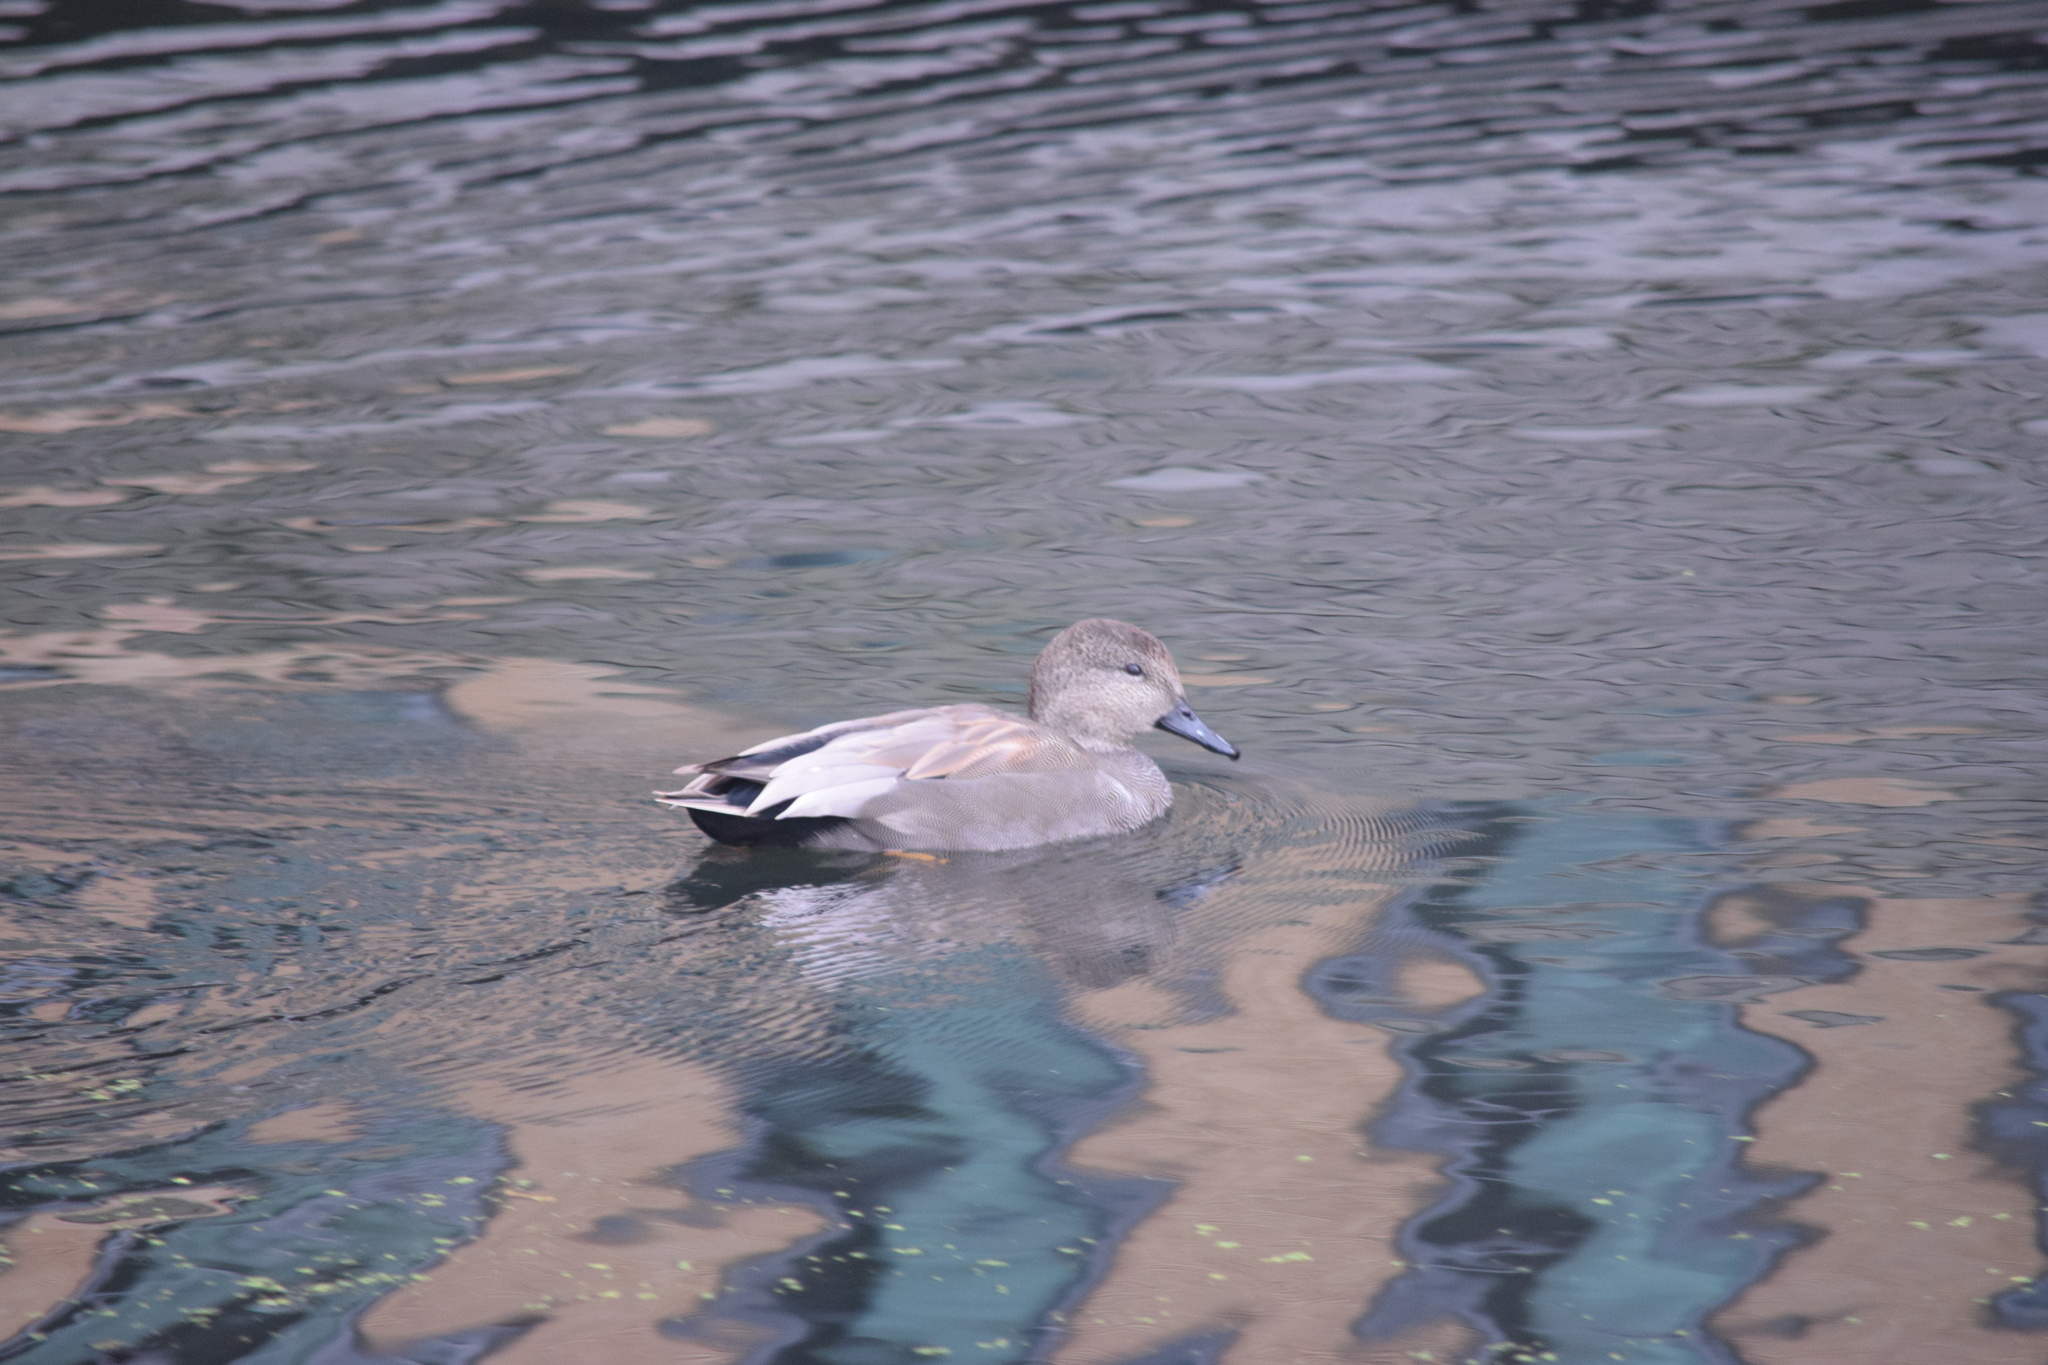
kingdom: Animalia
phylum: Chordata
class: Aves
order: Anseriformes
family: Anatidae
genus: Mareca
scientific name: Mareca strepera
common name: Gadwall
